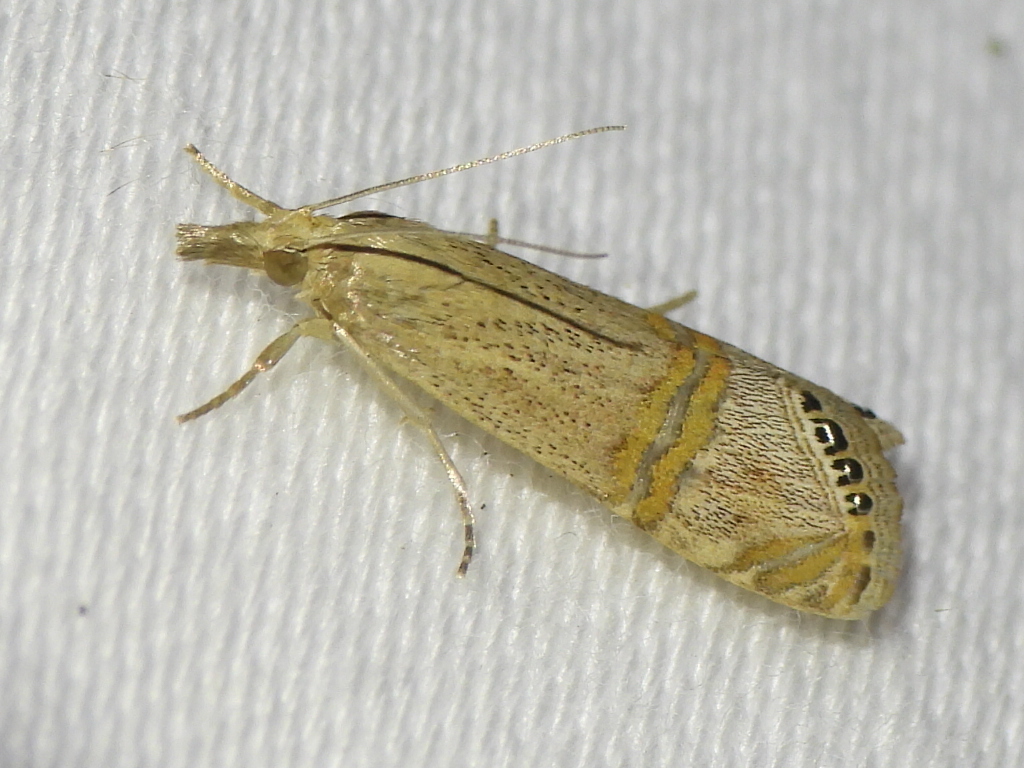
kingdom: Animalia
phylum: Arthropoda
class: Insecta
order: Lepidoptera
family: Crambidae
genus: Euchromius
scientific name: Euchromius ocellea
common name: Necklace veneer moth
